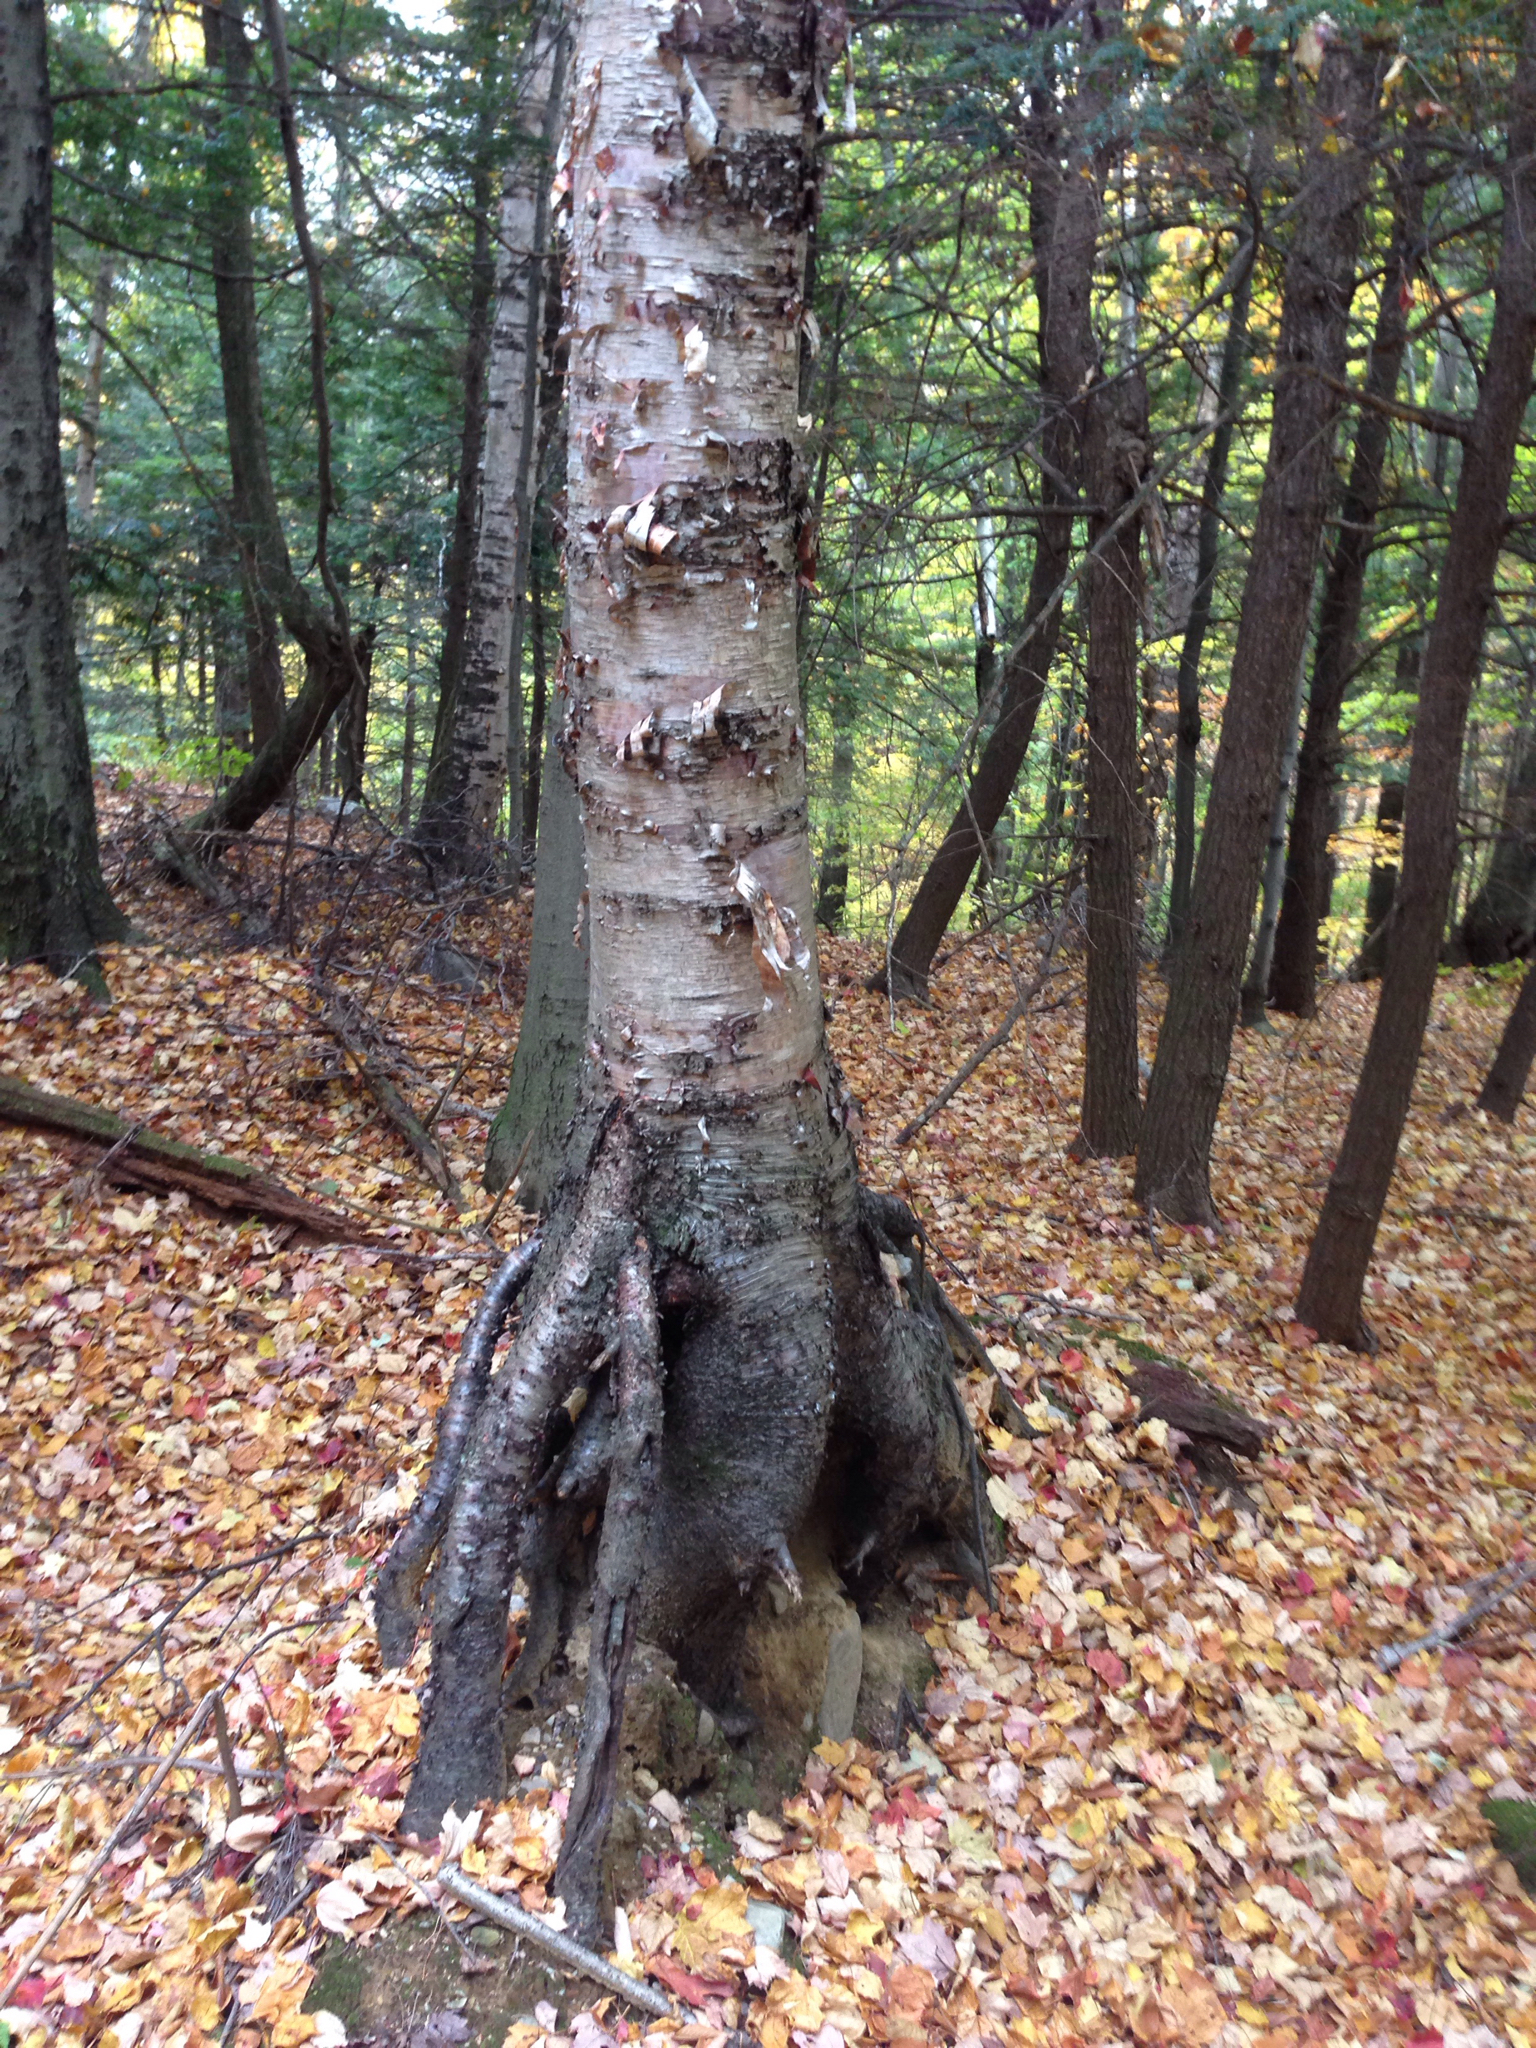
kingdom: Plantae
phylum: Tracheophyta
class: Magnoliopsida
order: Fagales
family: Betulaceae
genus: Betula
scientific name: Betula papyrifera
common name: Paper birch
